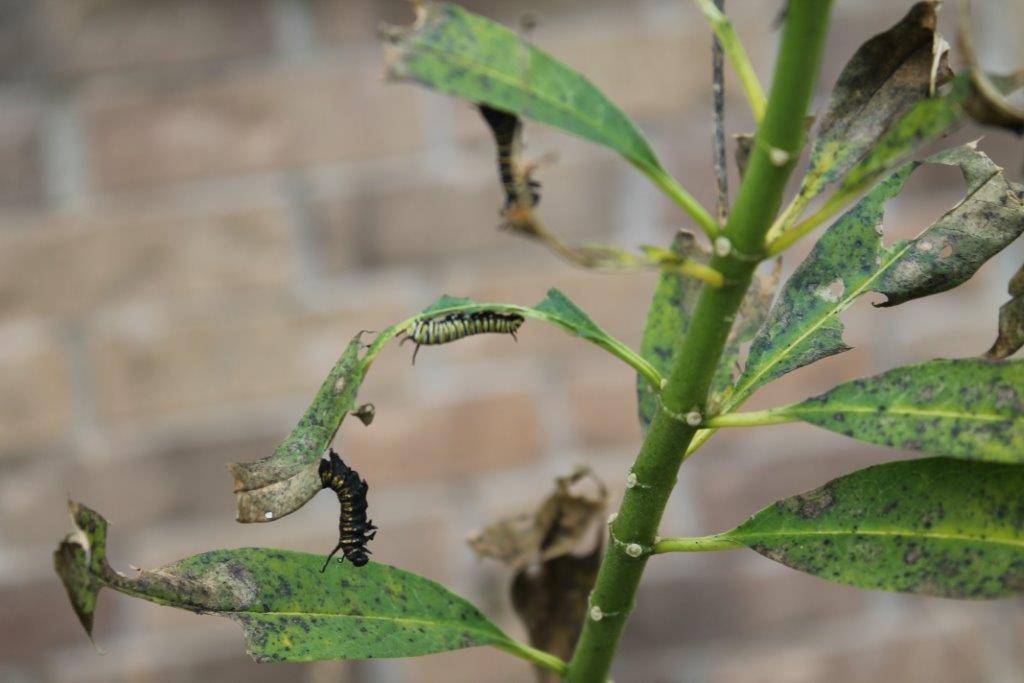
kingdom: Animalia
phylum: Arthropoda
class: Insecta
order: Lepidoptera
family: Nymphalidae
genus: Danaus
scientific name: Danaus plexippus
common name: Monarch
